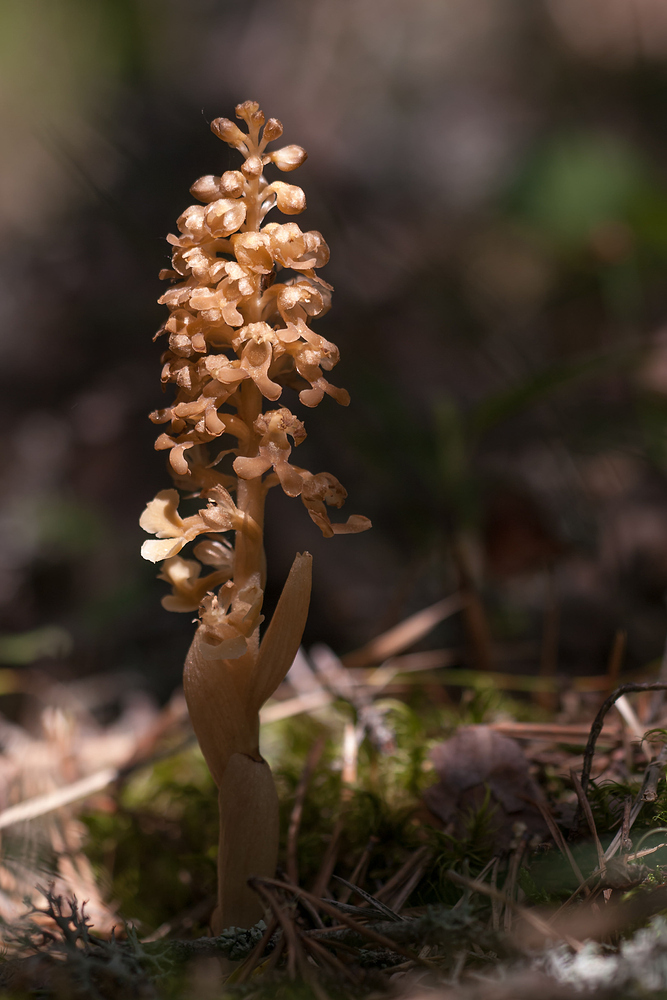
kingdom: Plantae
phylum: Tracheophyta
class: Liliopsida
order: Asparagales
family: Orchidaceae
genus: Neottia
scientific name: Neottia nidus-avis
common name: Bird's-nest orchid
